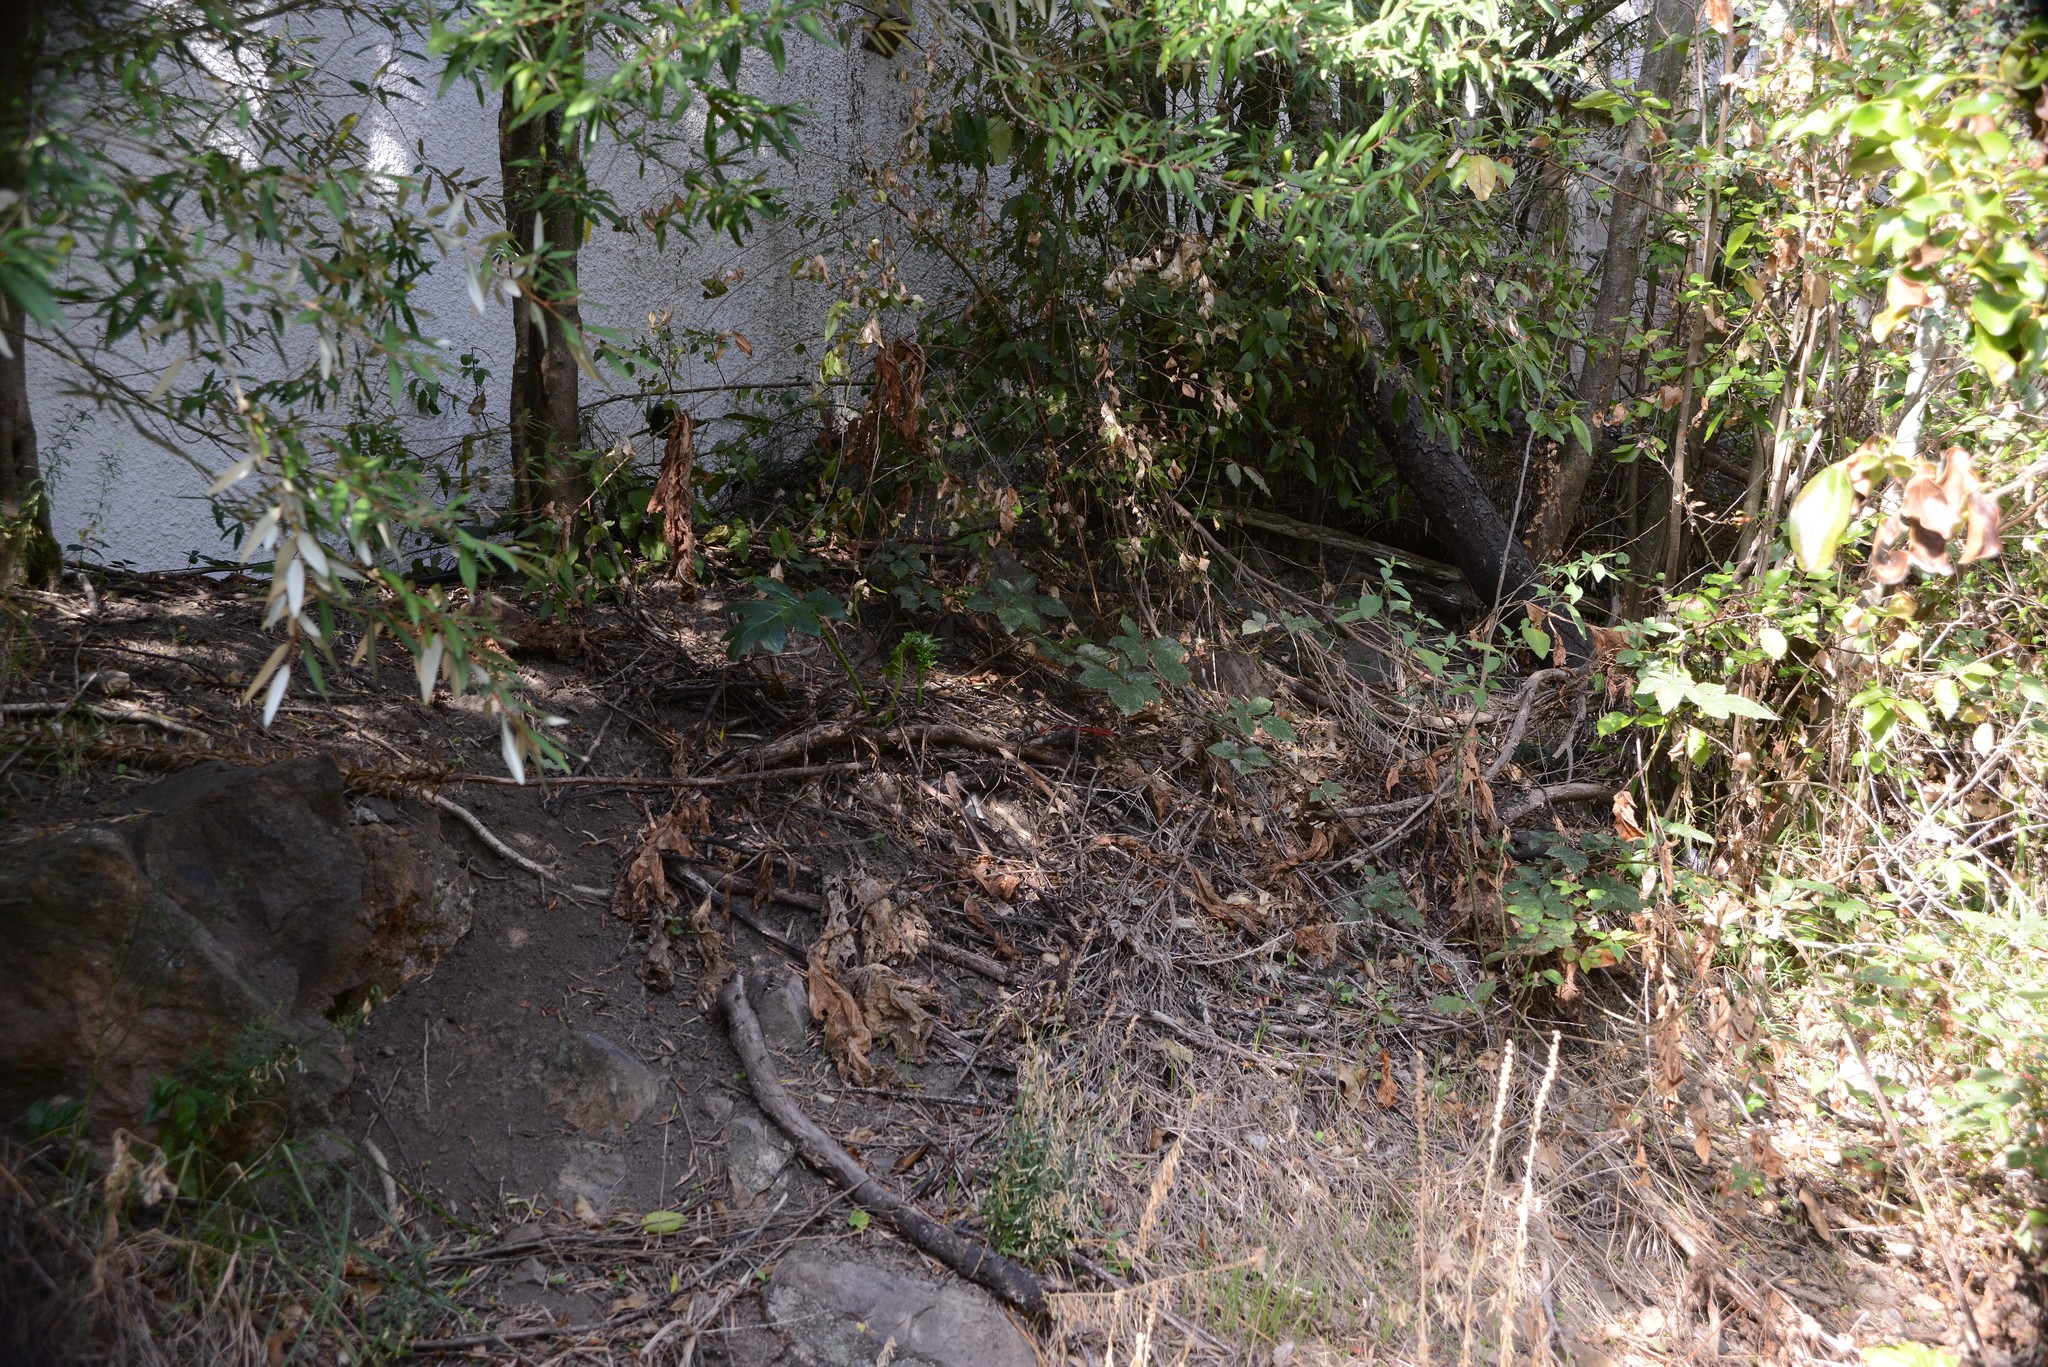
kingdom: Plantae
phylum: Tracheophyta
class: Magnoliopsida
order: Lamiales
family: Acanthaceae
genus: Acanthus
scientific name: Acanthus mollis
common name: Bear's-breech
